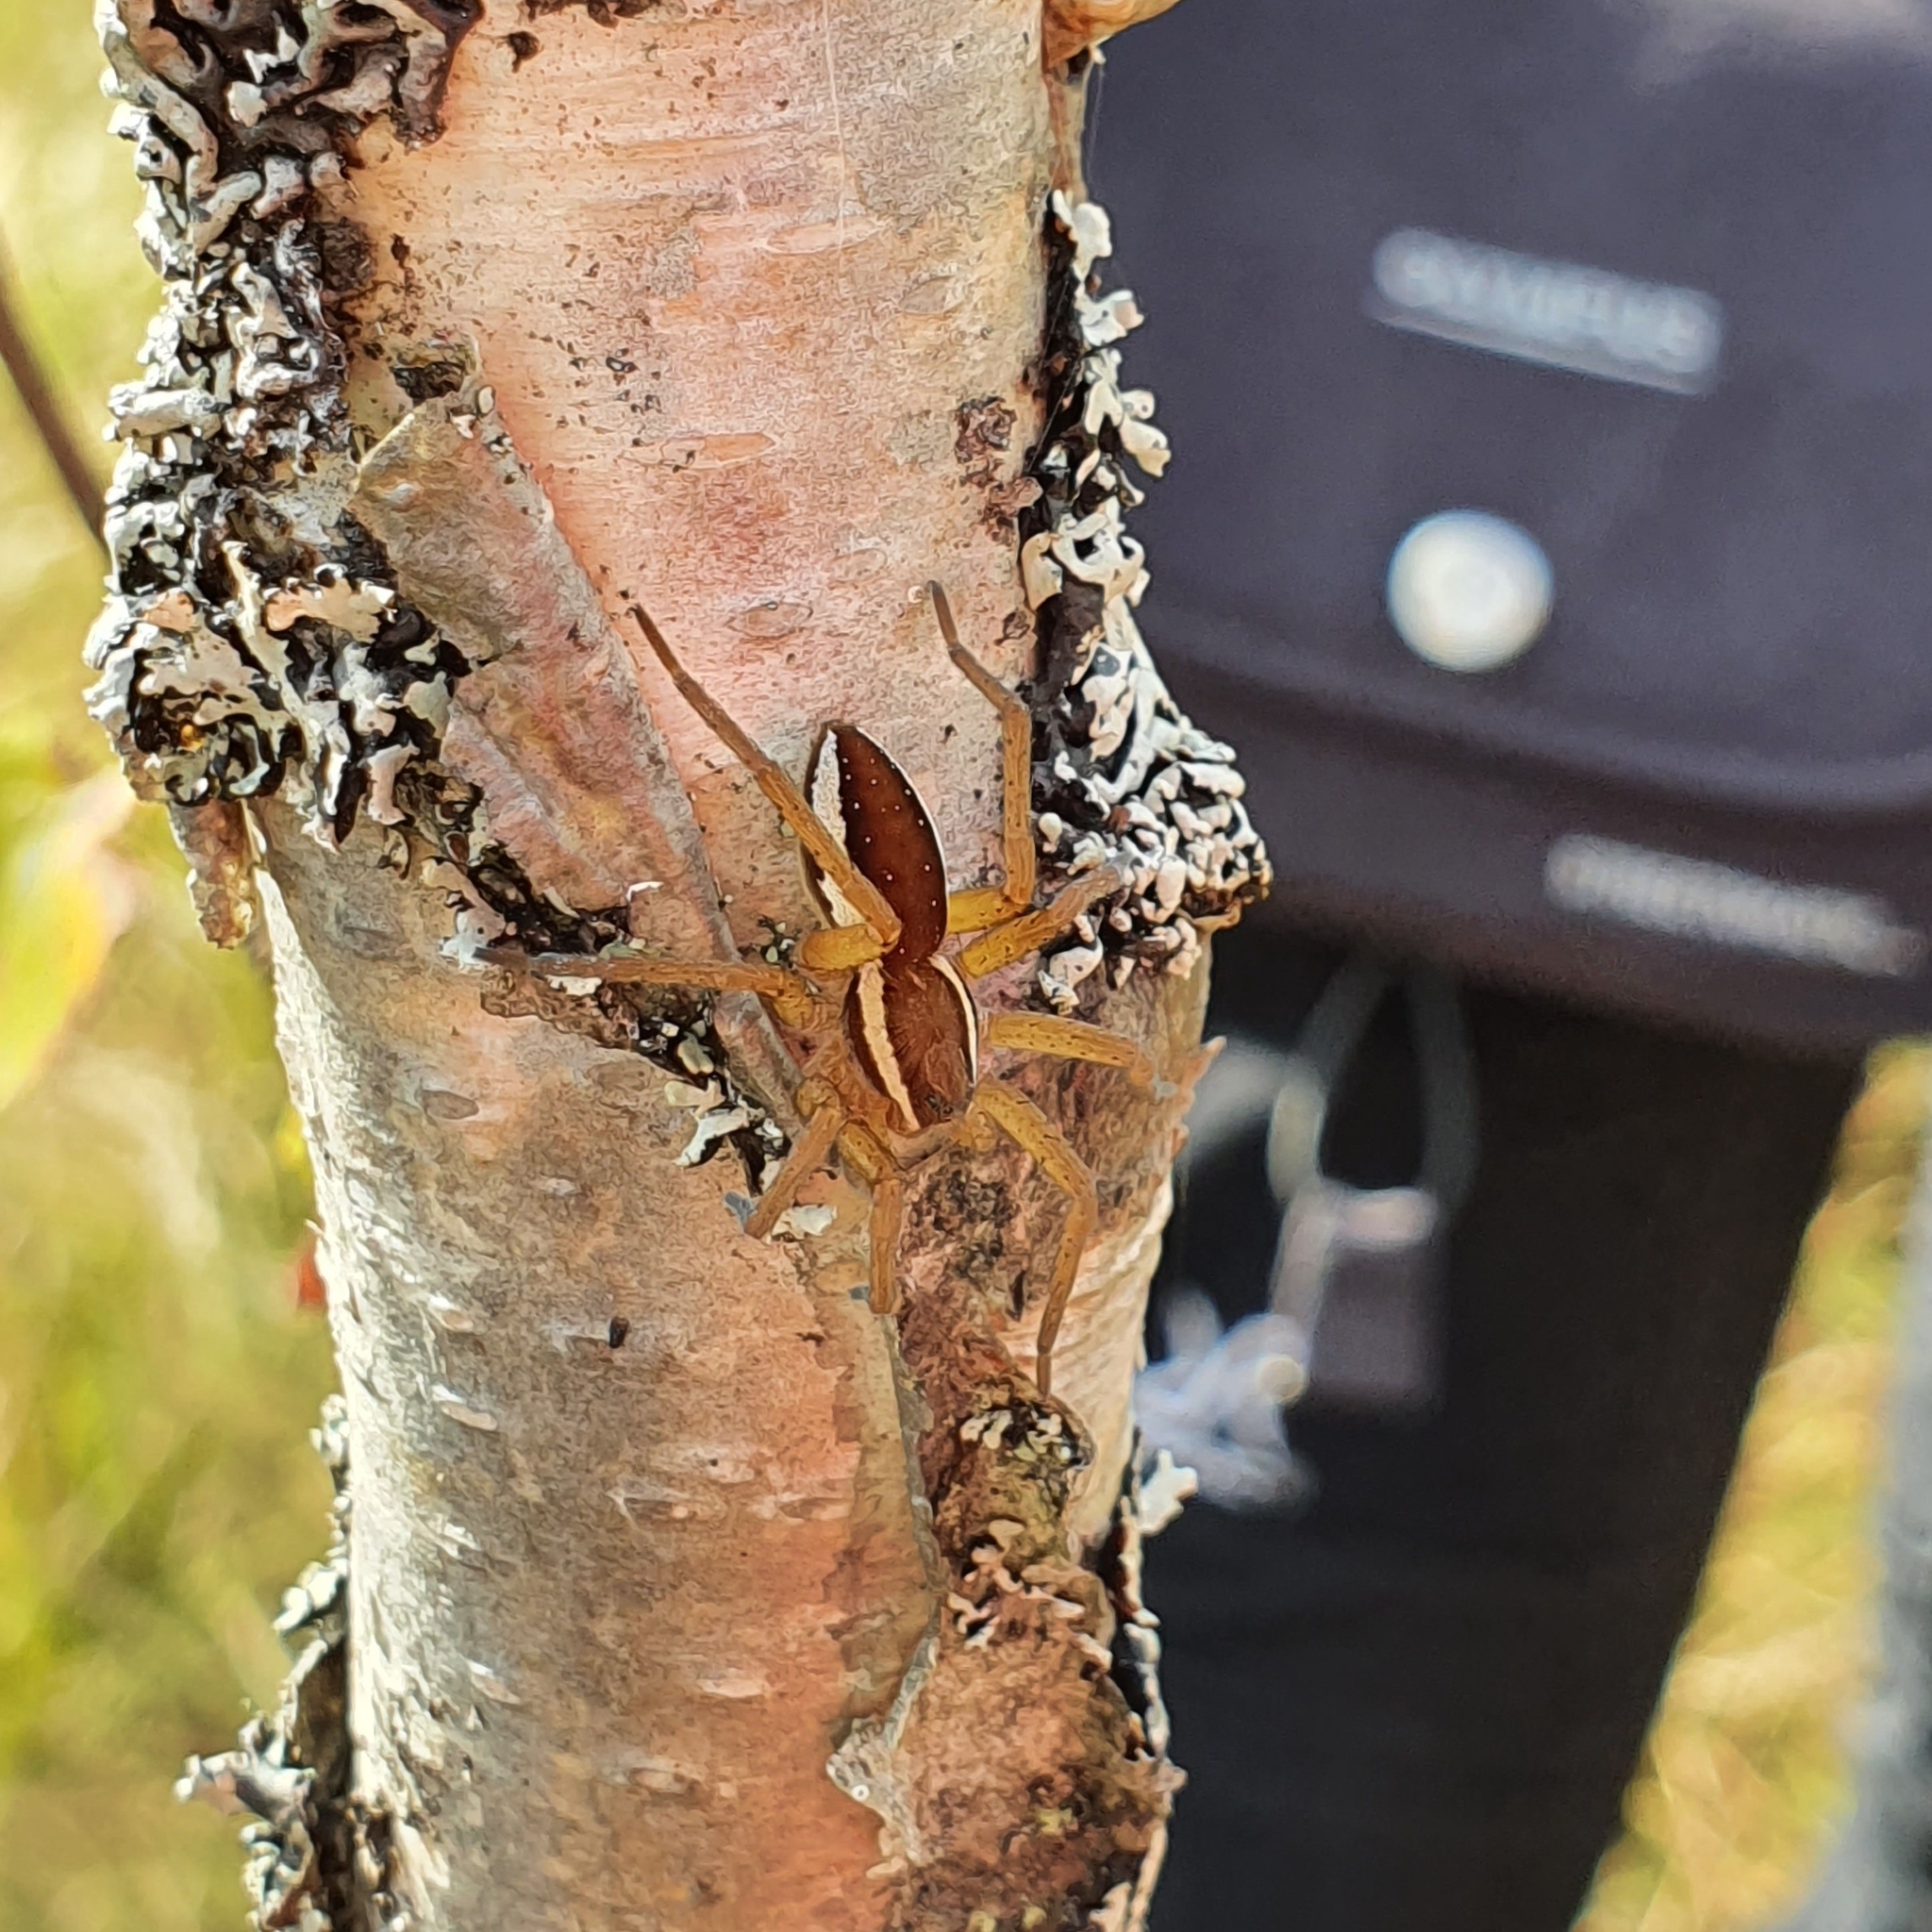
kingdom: Animalia
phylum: Arthropoda
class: Arachnida
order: Araneae
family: Pisauridae
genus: Dolomedes
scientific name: Dolomedes fimbriatus
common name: Raft spider
